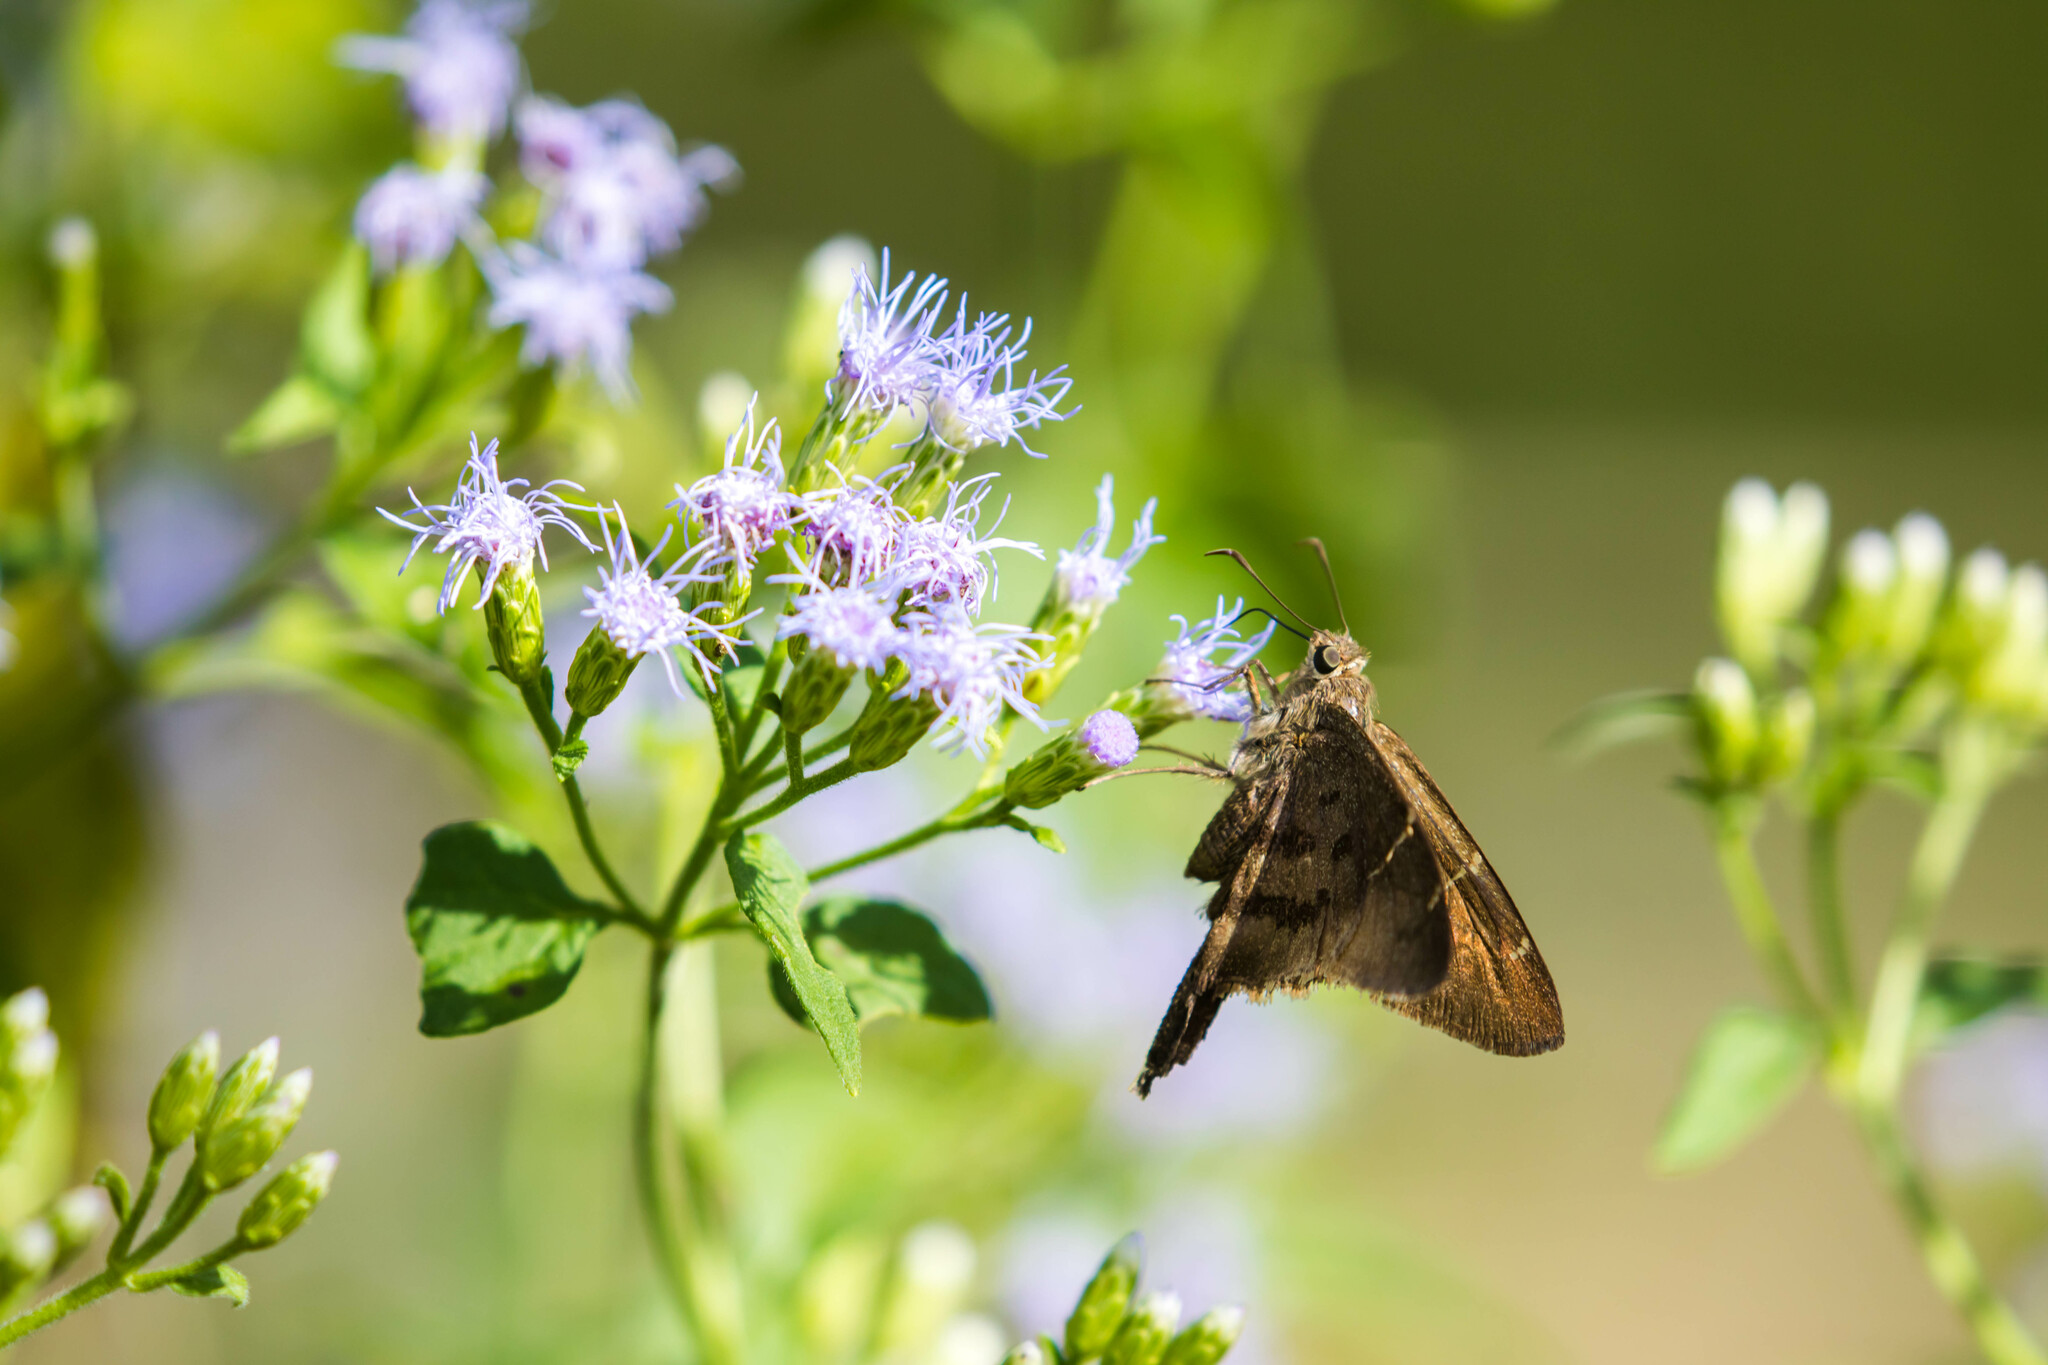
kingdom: Animalia
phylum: Arthropoda
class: Insecta
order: Lepidoptera
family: Hesperiidae
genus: Urbanus
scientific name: Urbanus procne
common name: Brown longtail
